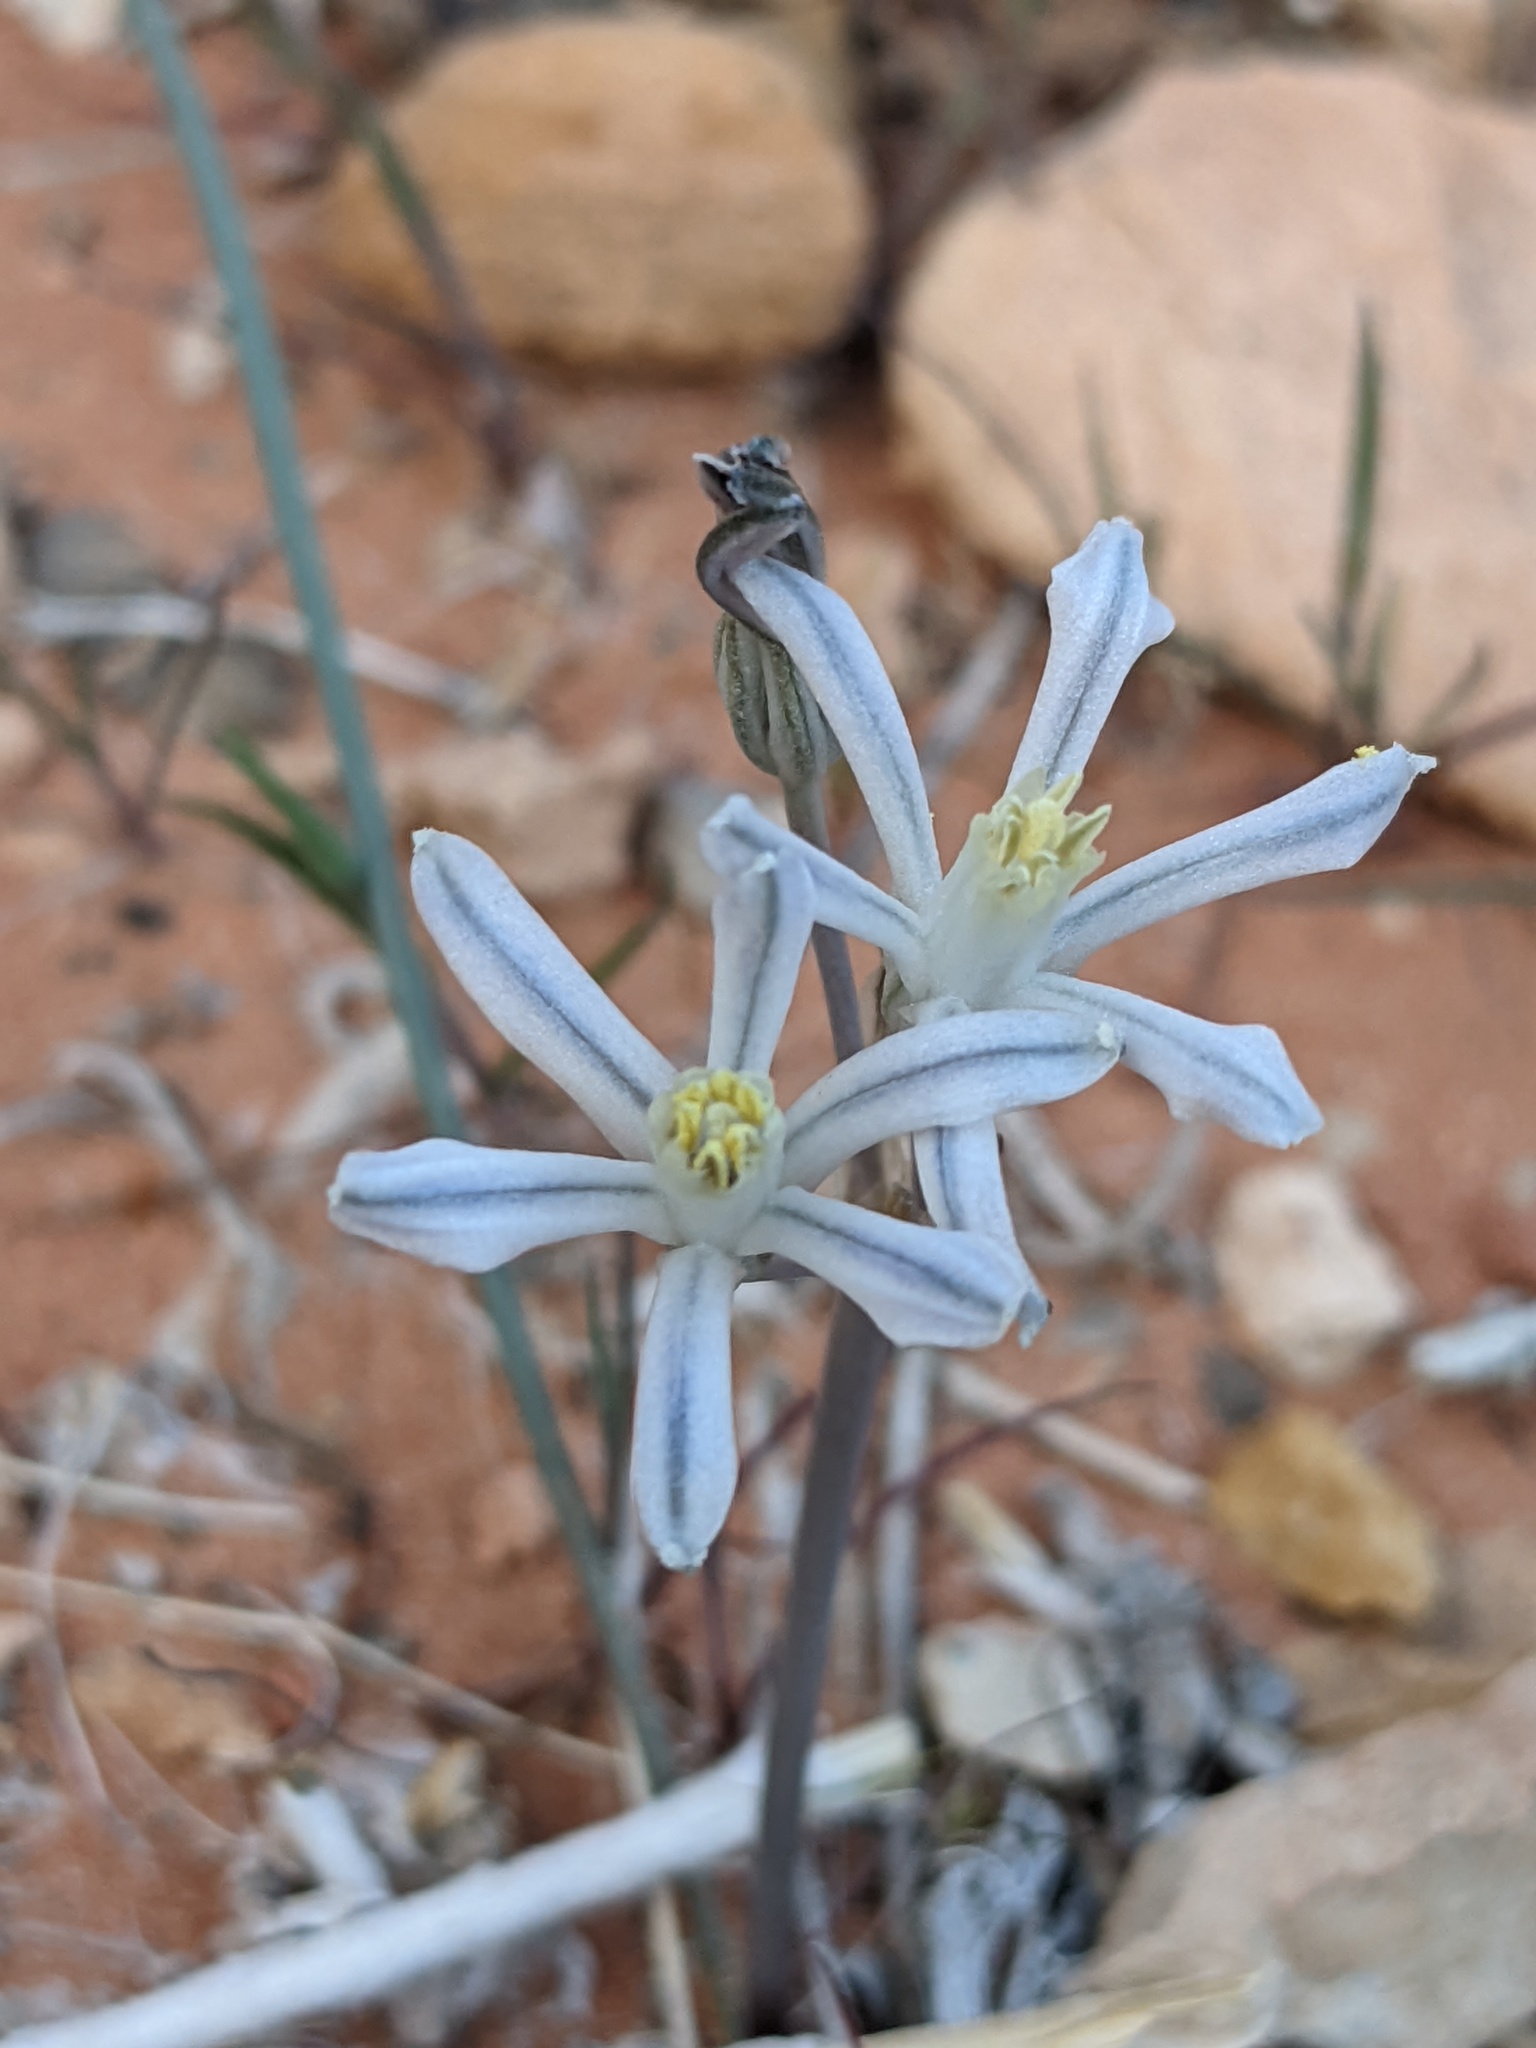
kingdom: Plantae
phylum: Tracheophyta
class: Liliopsida
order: Asparagales
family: Asparagaceae
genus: Androstephium
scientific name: Androstephium breviflorum
